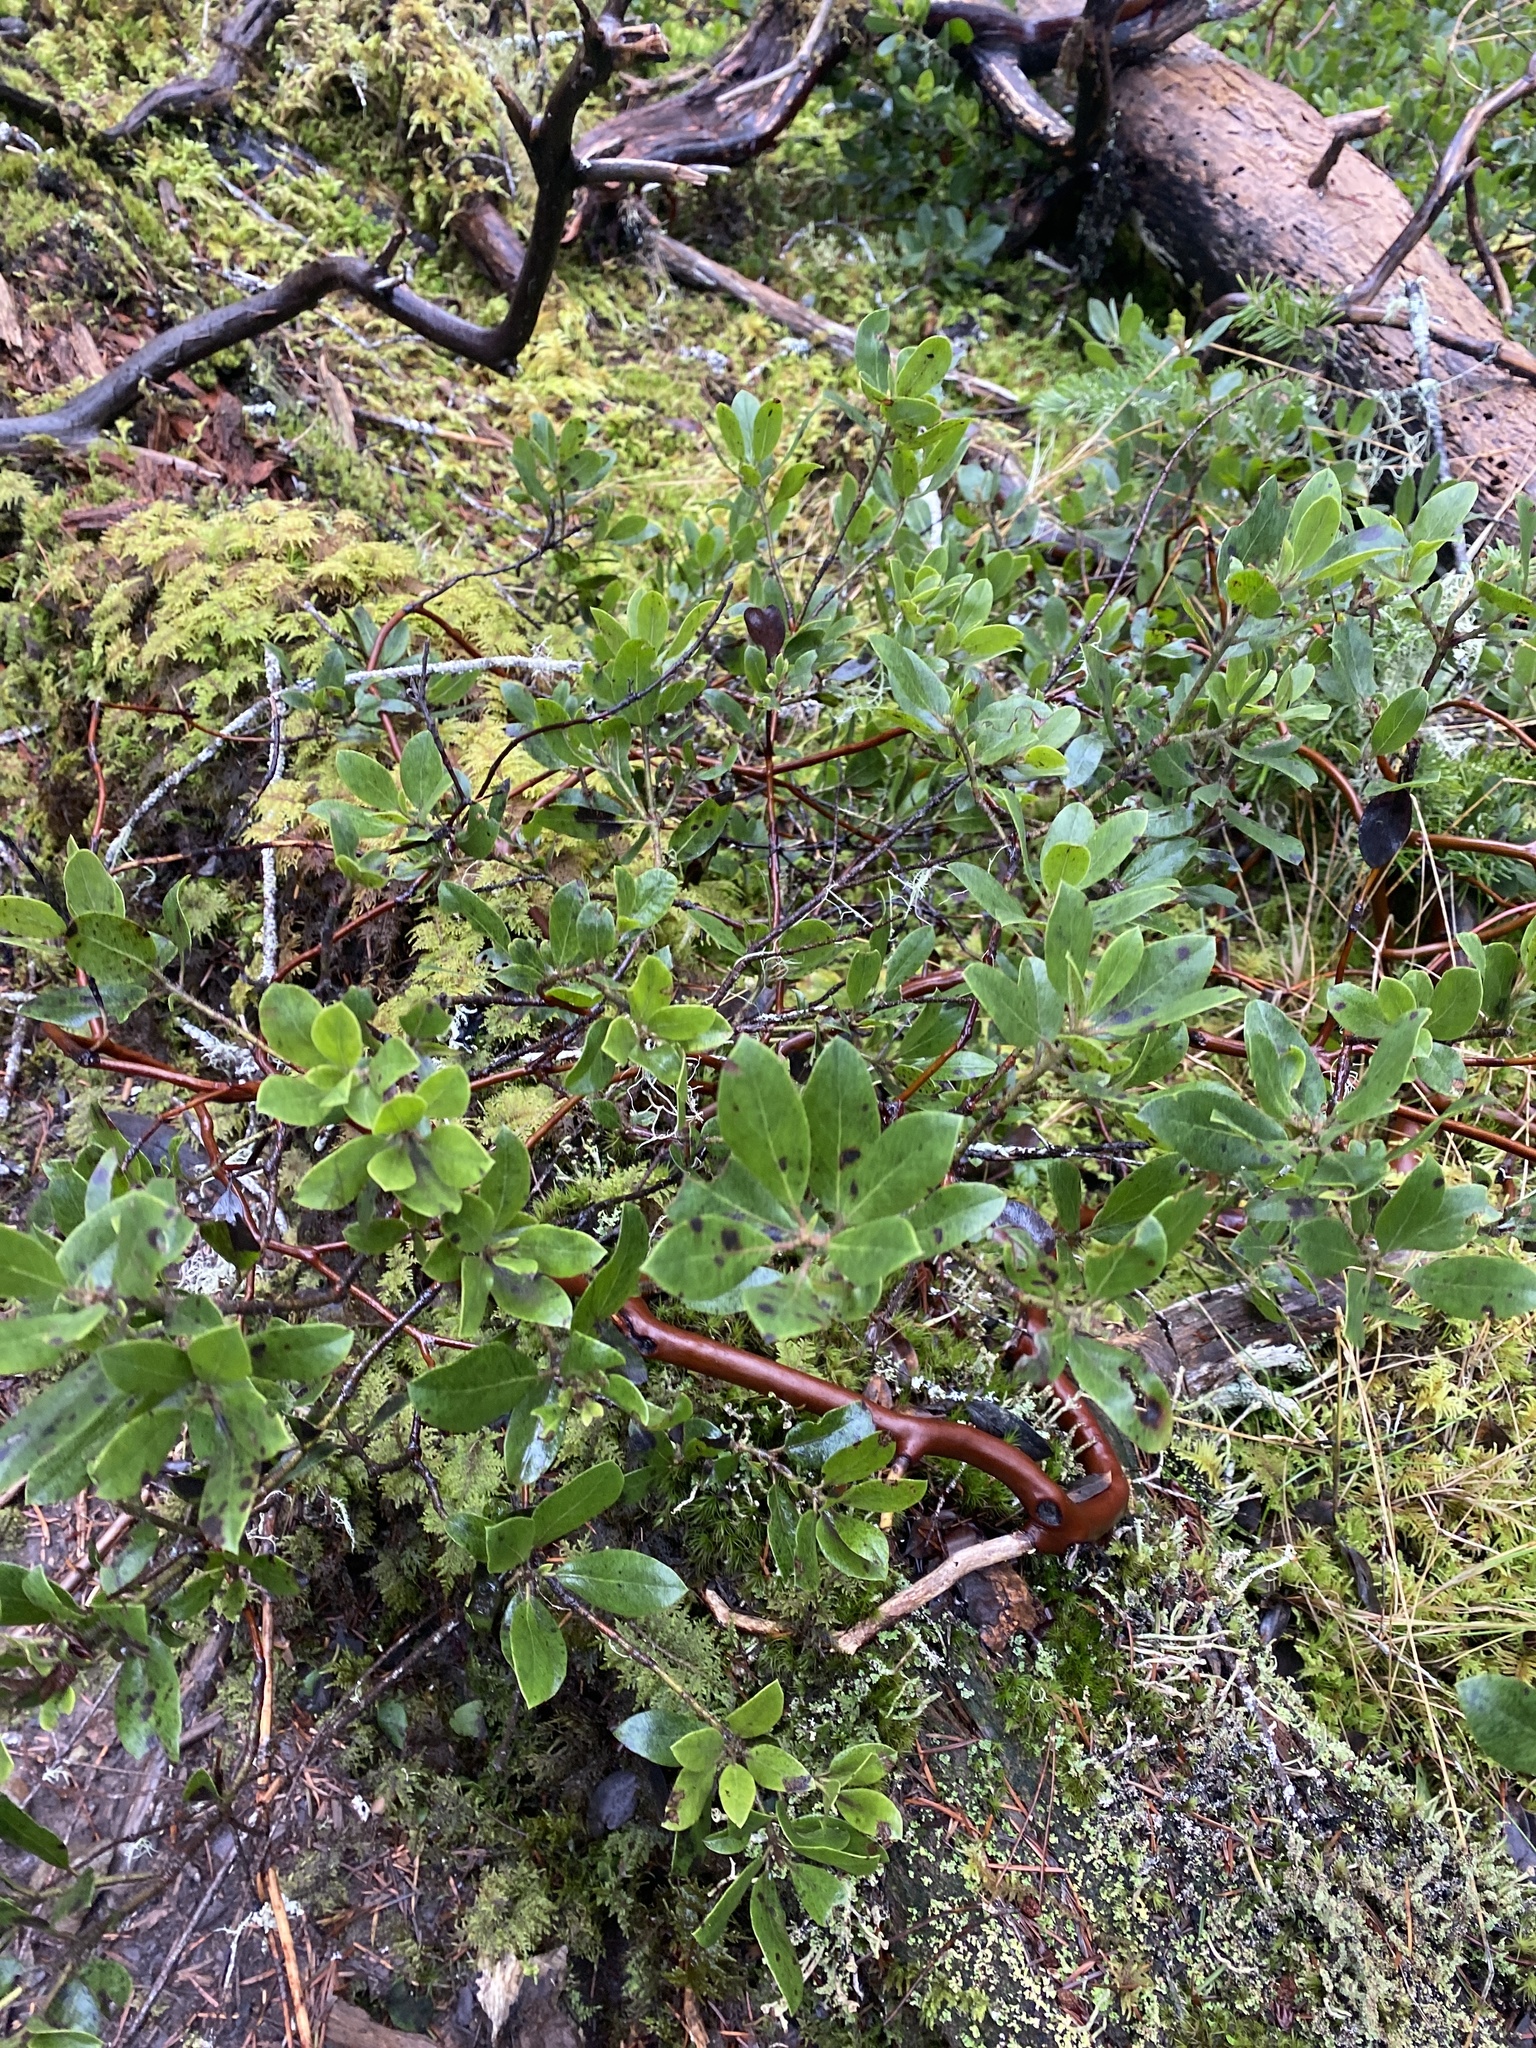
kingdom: Plantae
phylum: Tracheophyta
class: Magnoliopsida
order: Ericales
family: Ericaceae
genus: Arctostaphylos
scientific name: Arctostaphylos columbiana
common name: Bristly bearberry
